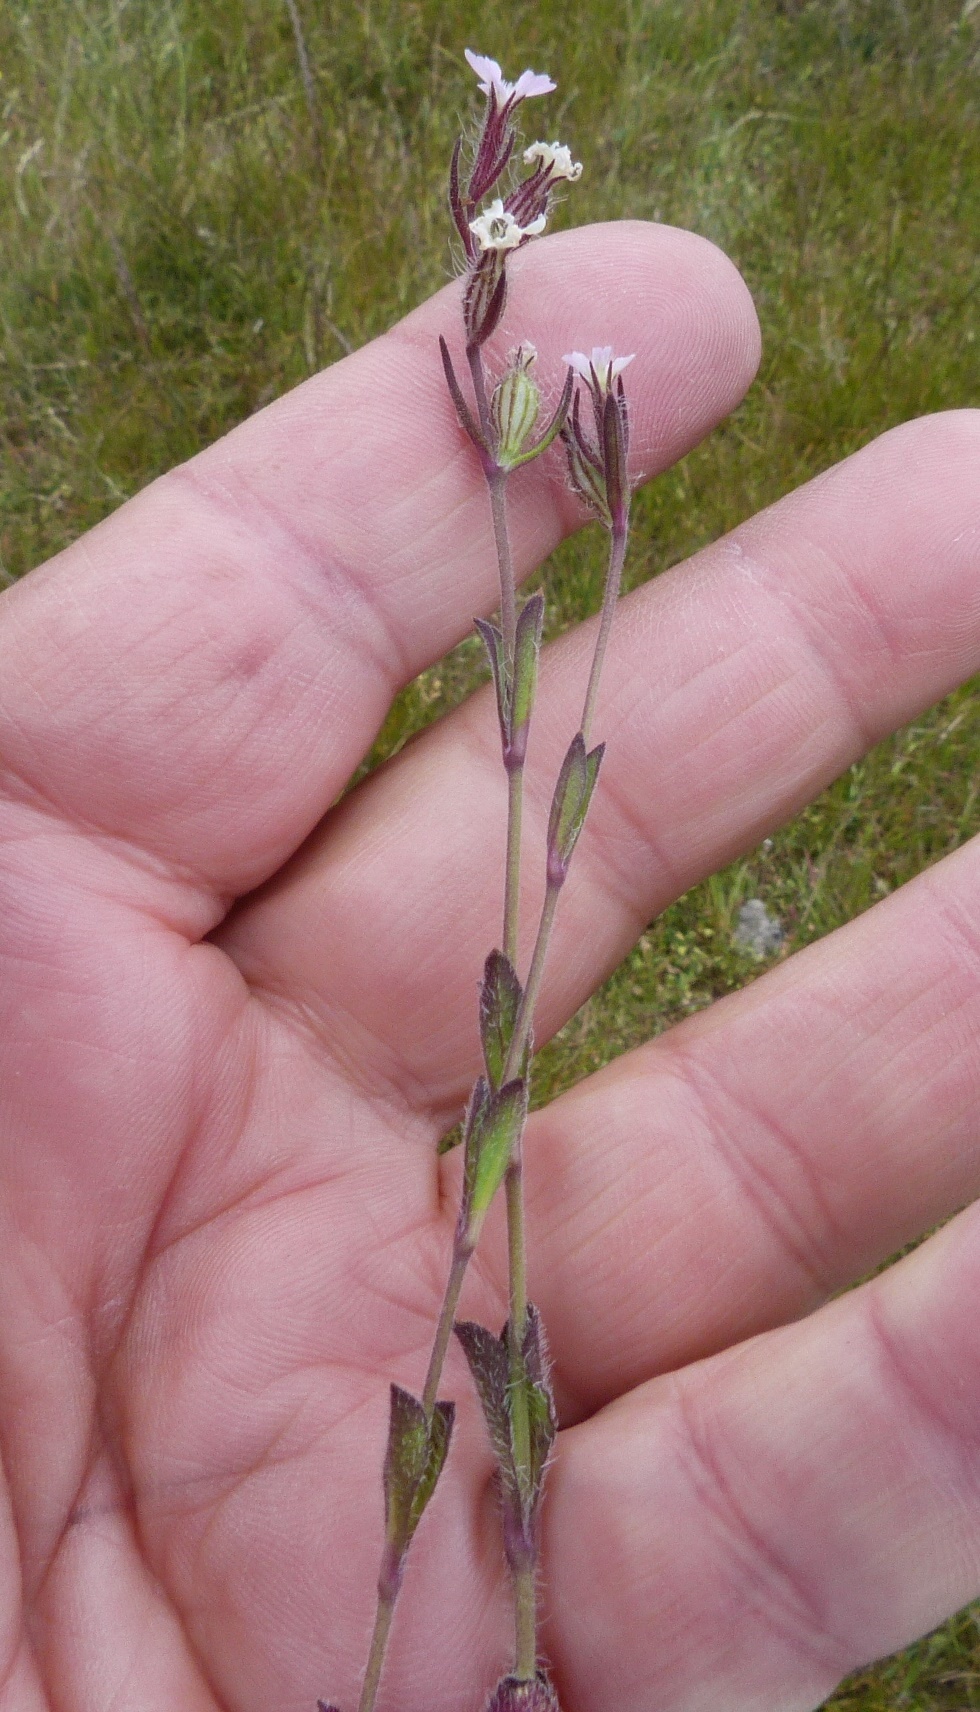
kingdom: Plantae
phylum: Tracheophyta
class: Magnoliopsida
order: Caryophyllales
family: Caryophyllaceae
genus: Silene
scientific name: Silene gallica
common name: Small-flowered catchfly
